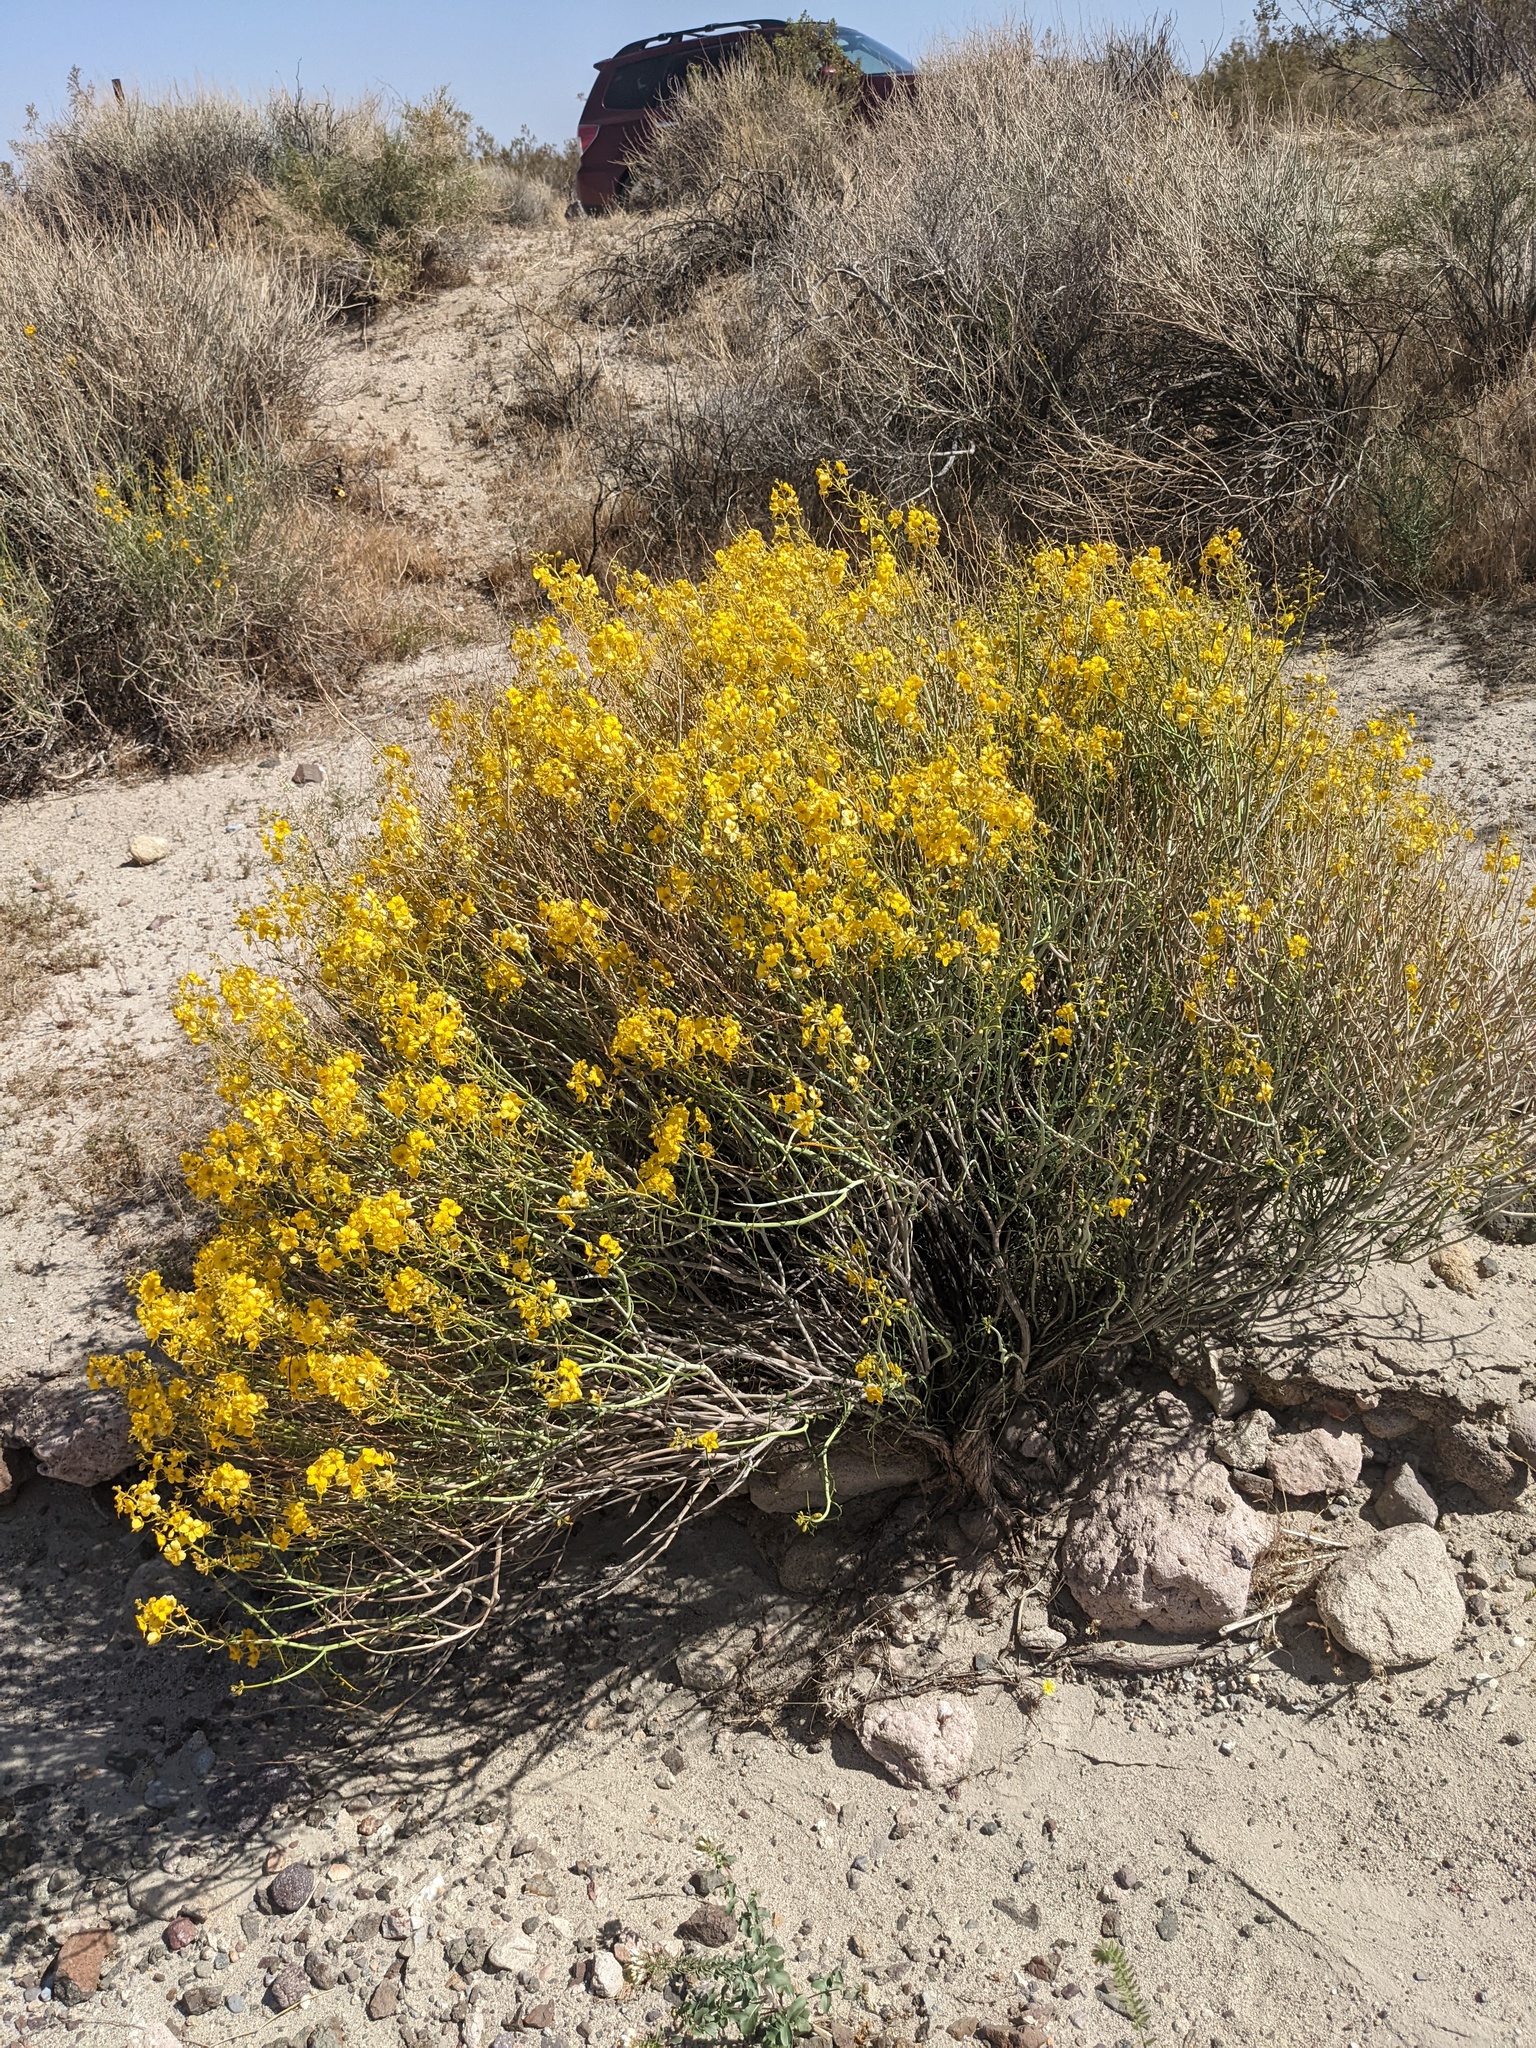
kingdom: Plantae
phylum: Tracheophyta
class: Magnoliopsida
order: Fabales
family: Fabaceae
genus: Senna
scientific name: Senna armata
